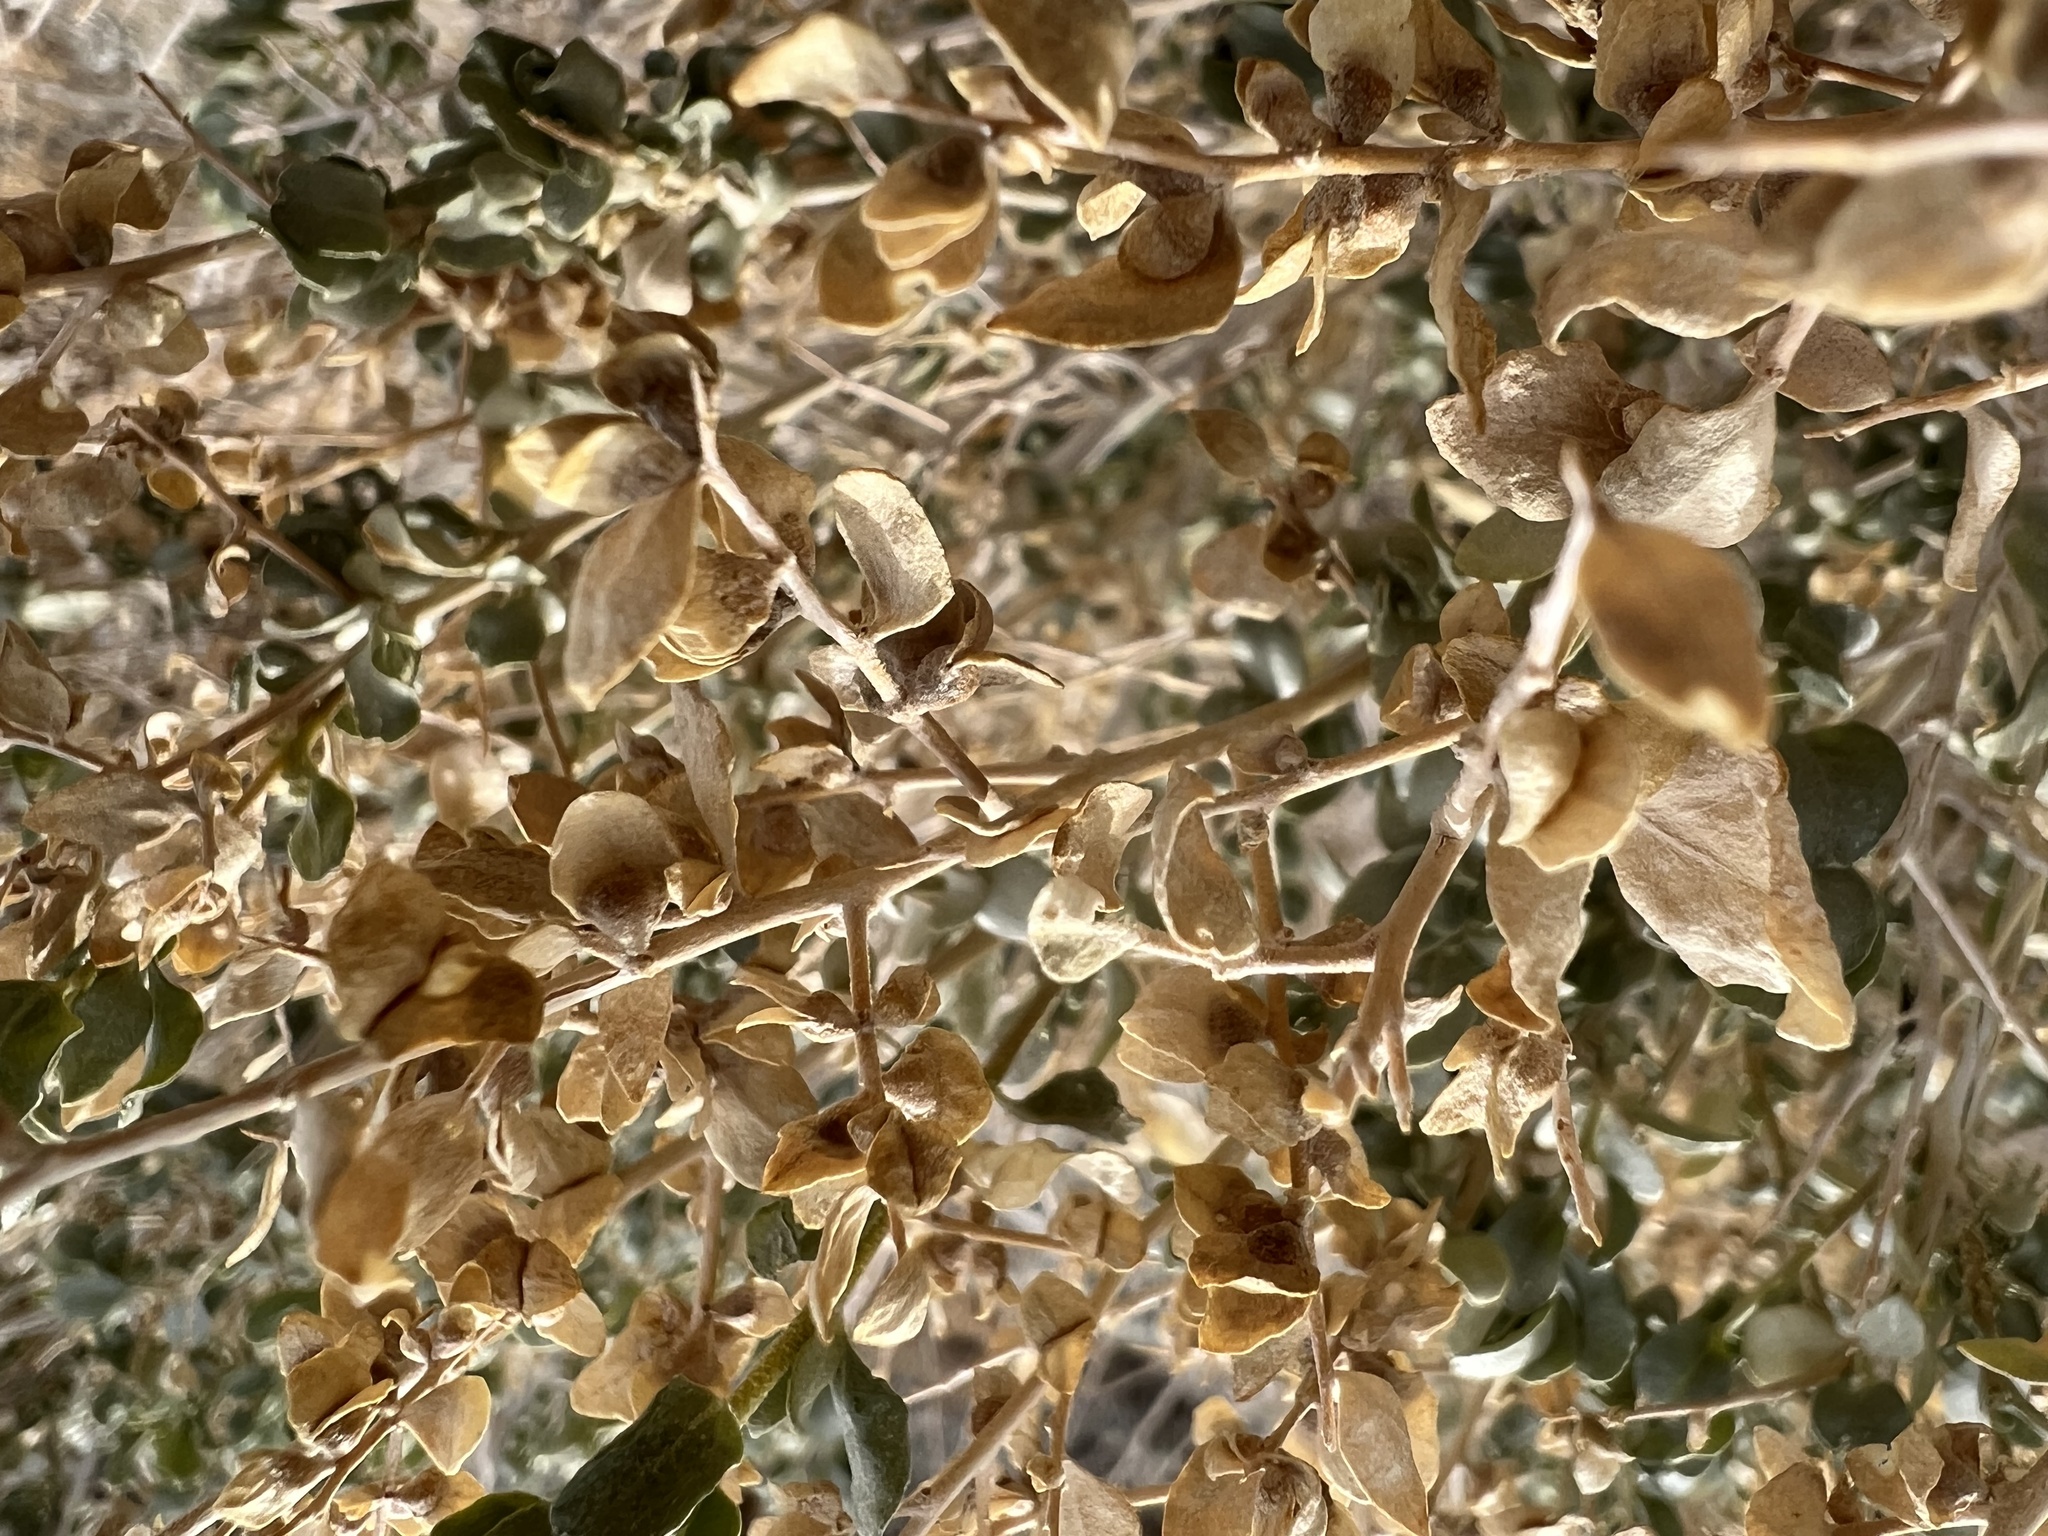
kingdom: Plantae
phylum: Tracheophyta
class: Magnoliopsida
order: Caryophyllales
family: Amaranthaceae
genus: Atriplex
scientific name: Atriplex confertifolia
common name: Shadscale
